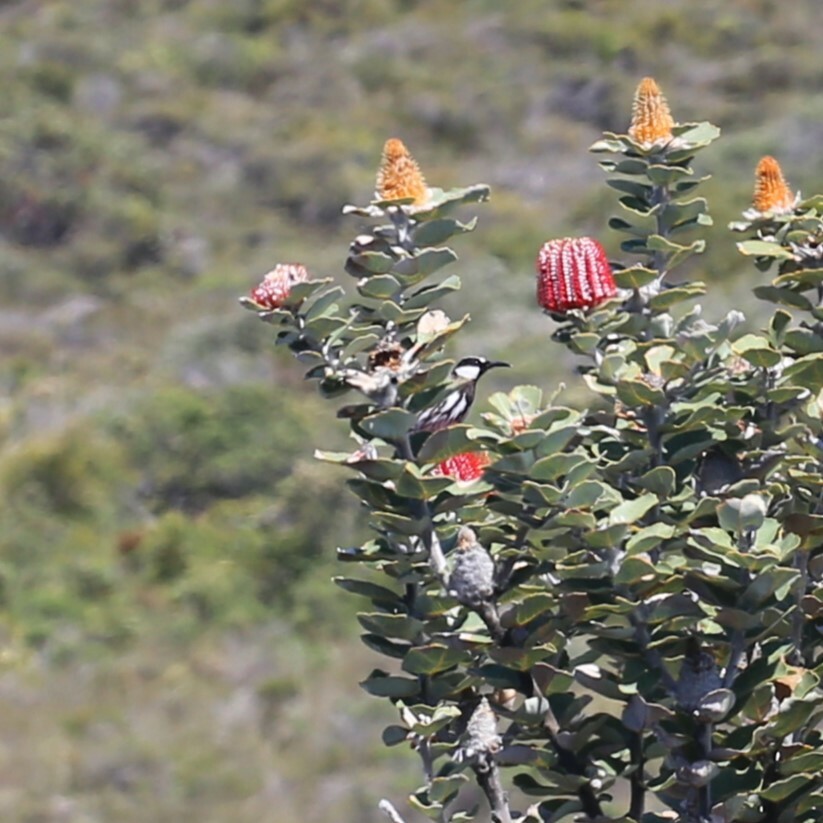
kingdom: Animalia
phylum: Chordata
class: Aves
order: Passeriformes
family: Meliphagidae
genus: Phylidonyris
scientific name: Phylidonyris niger
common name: White-cheeked honeyeater
